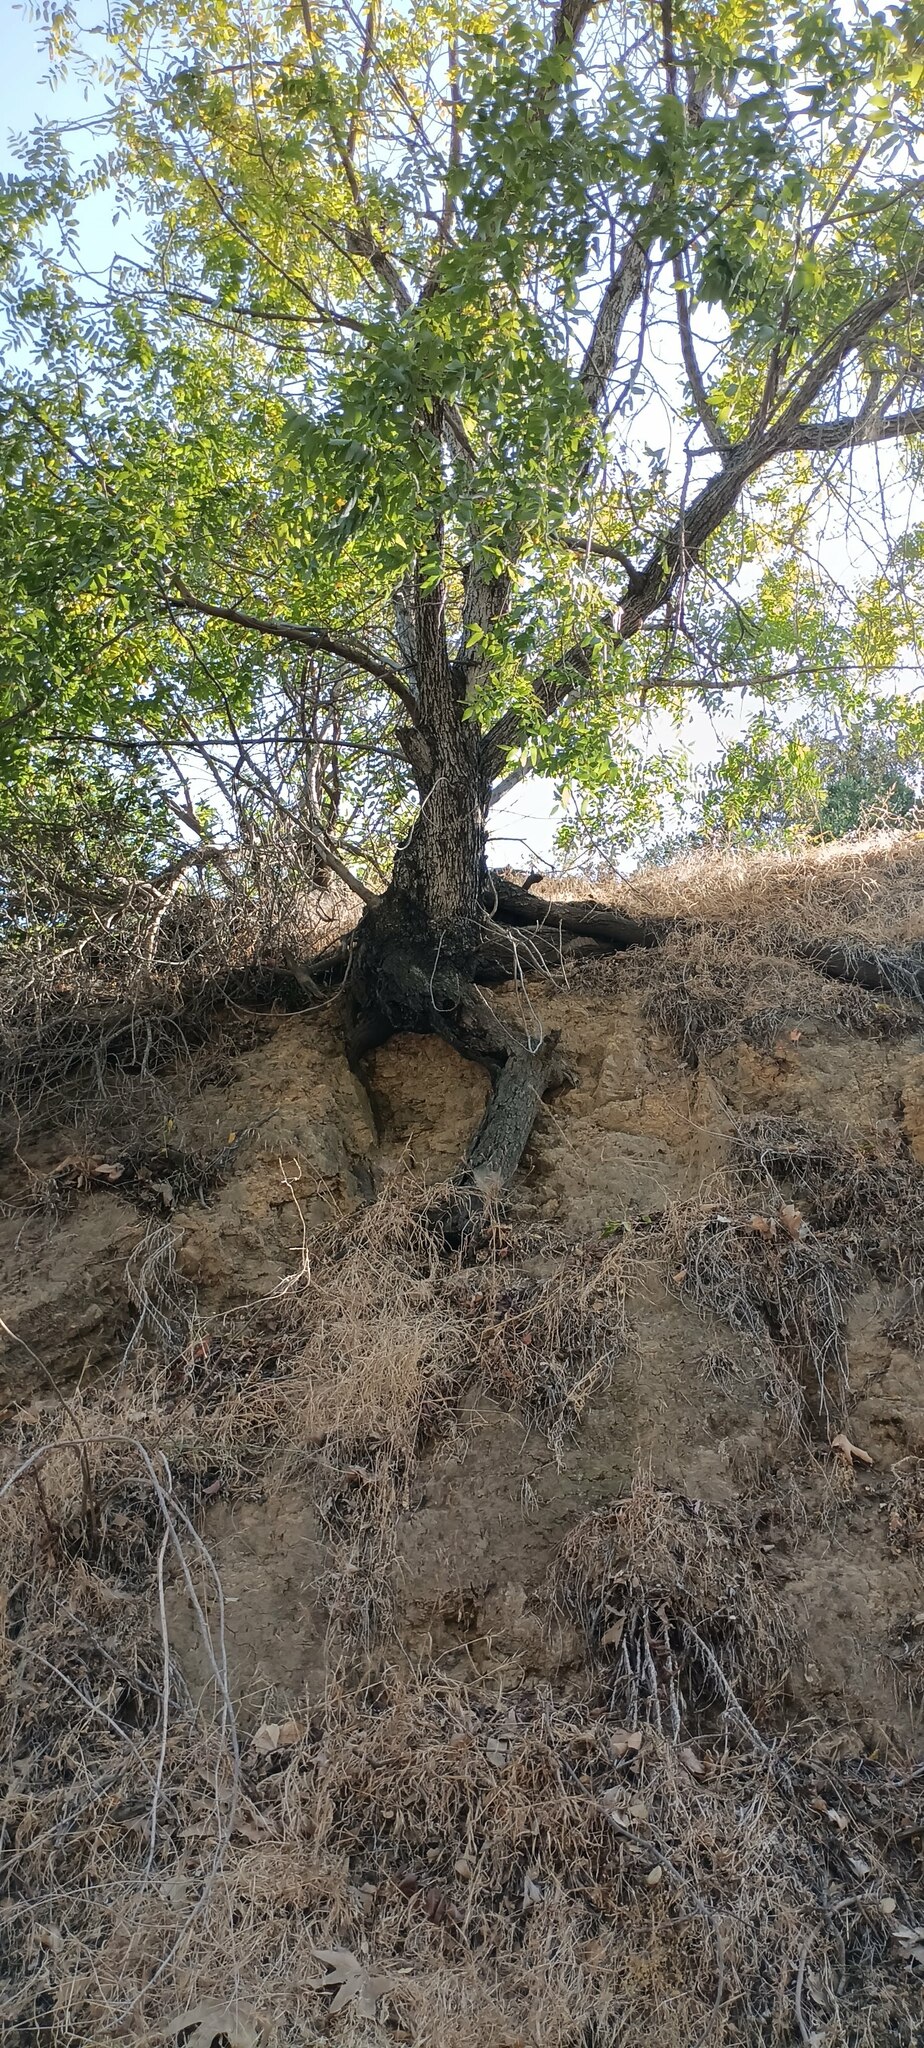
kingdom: Plantae
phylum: Tracheophyta
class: Magnoliopsida
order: Fagales
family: Juglandaceae
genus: Juglans
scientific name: Juglans californica
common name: Southern california black walnut
